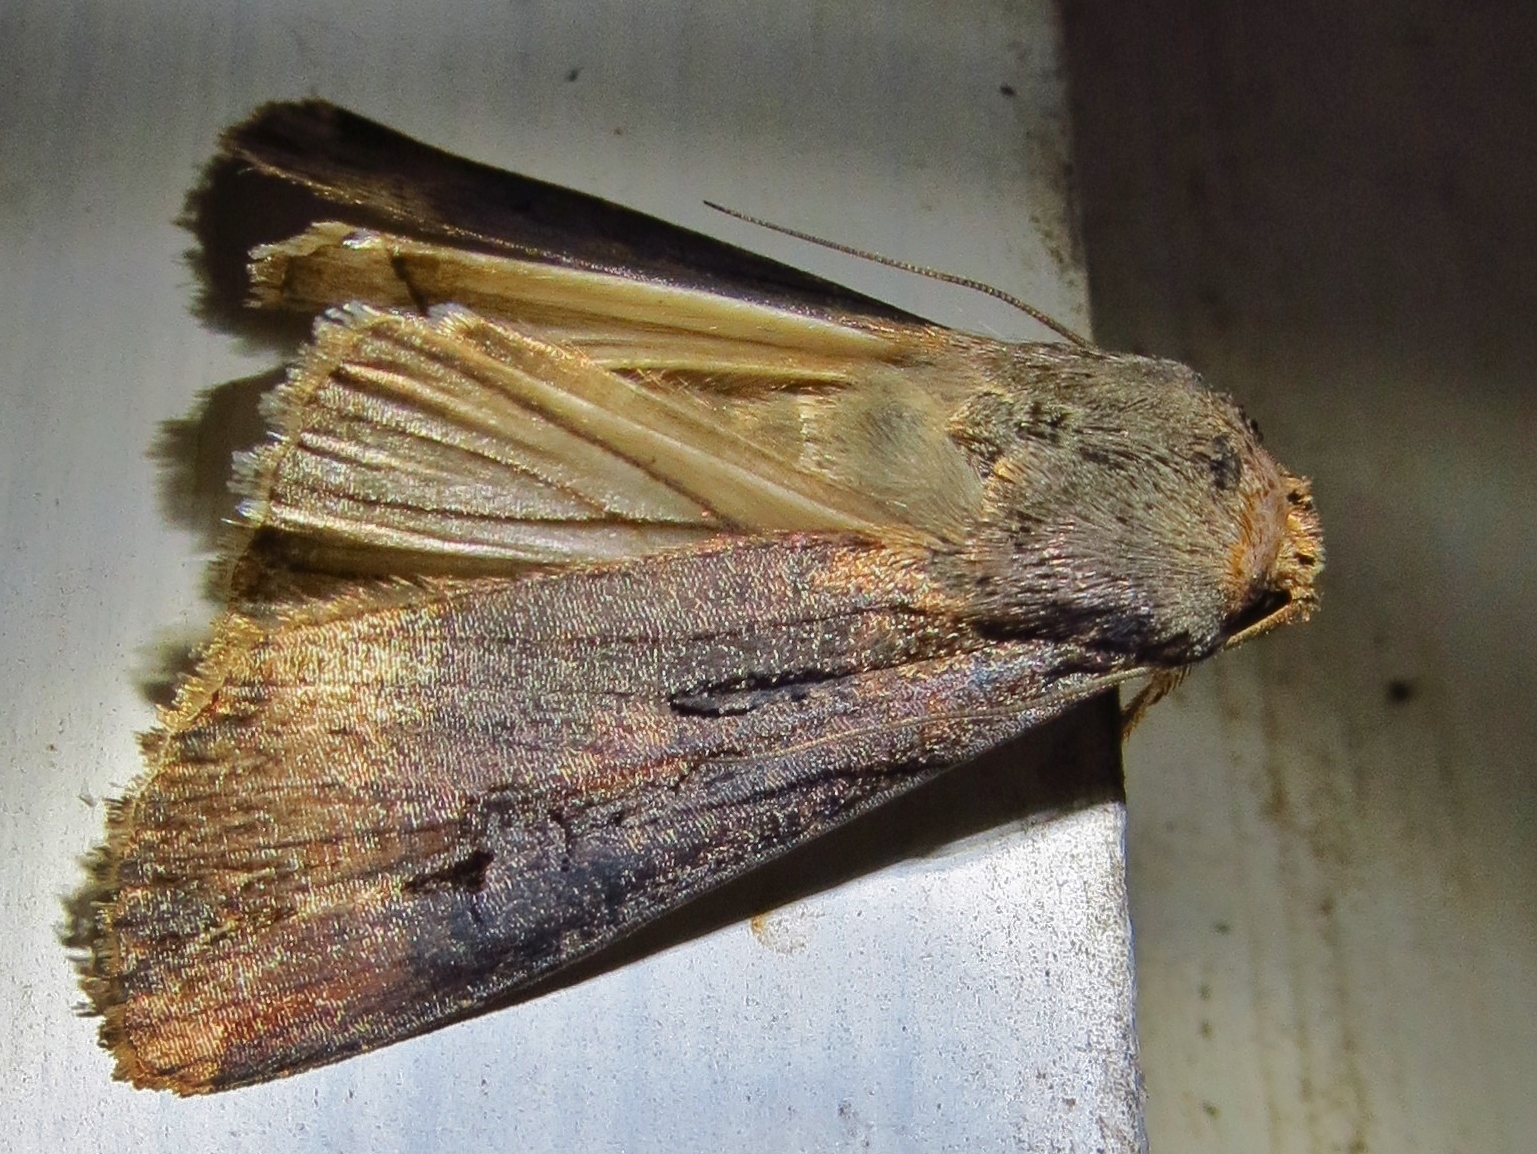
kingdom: Animalia
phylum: Arthropoda
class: Insecta
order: Lepidoptera
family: Noctuidae
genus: Agrotis
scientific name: Agrotis ipsilon
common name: Dark sword-grass
